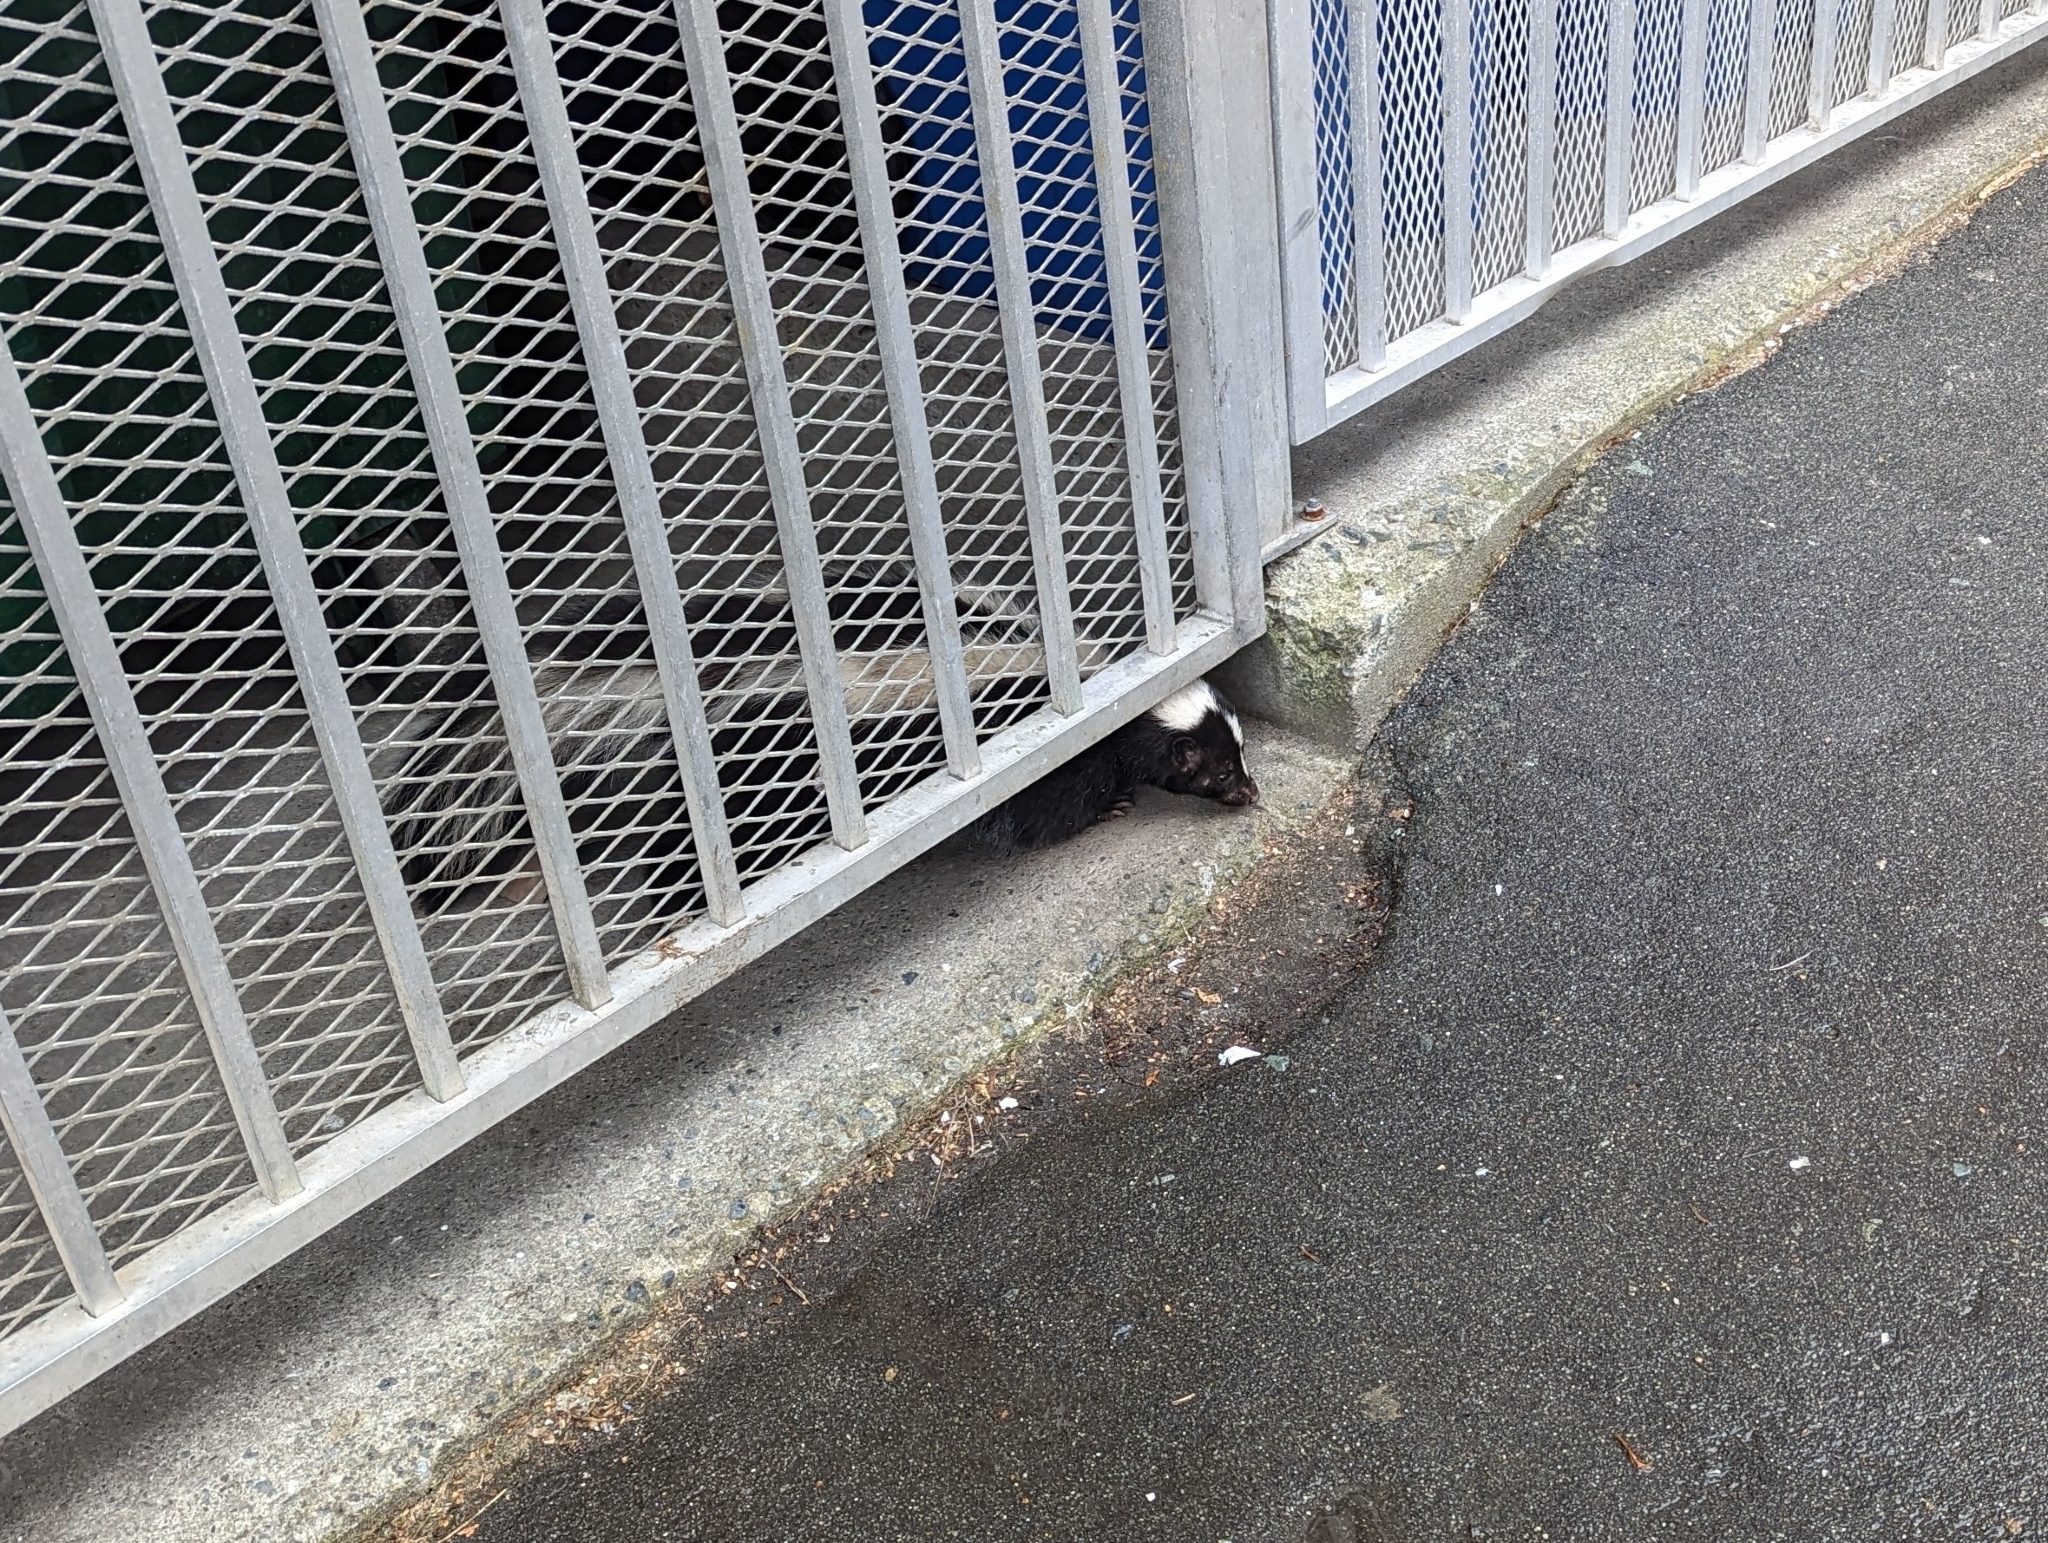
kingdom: Animalia
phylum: Chordata
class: Mammalia
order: Carnivora
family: Mephitidae
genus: Mephitis
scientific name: Mephitis mephitis
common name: Striped skunk
